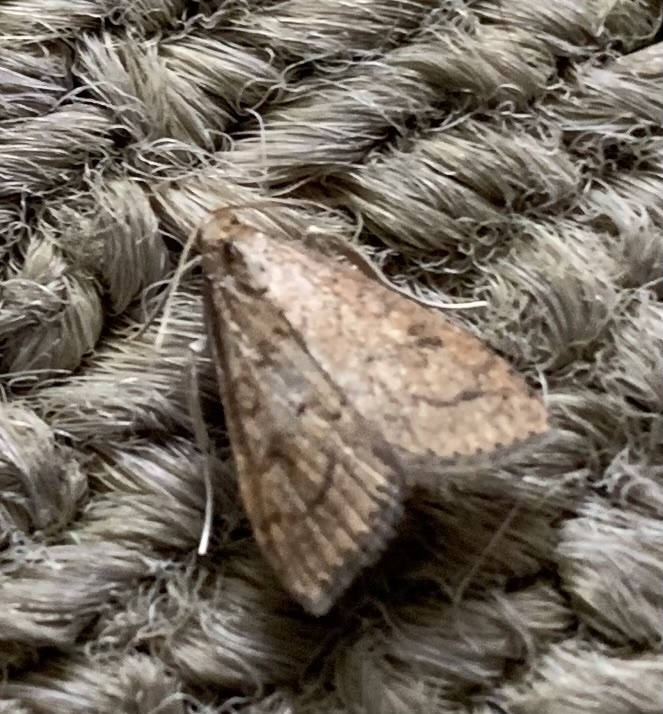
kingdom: Animalia
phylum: Arthropoda
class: Insecta
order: Lepidoptera
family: Crambidae
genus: Udea
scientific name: Udea rubigalis
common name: Celery leaftier moth
